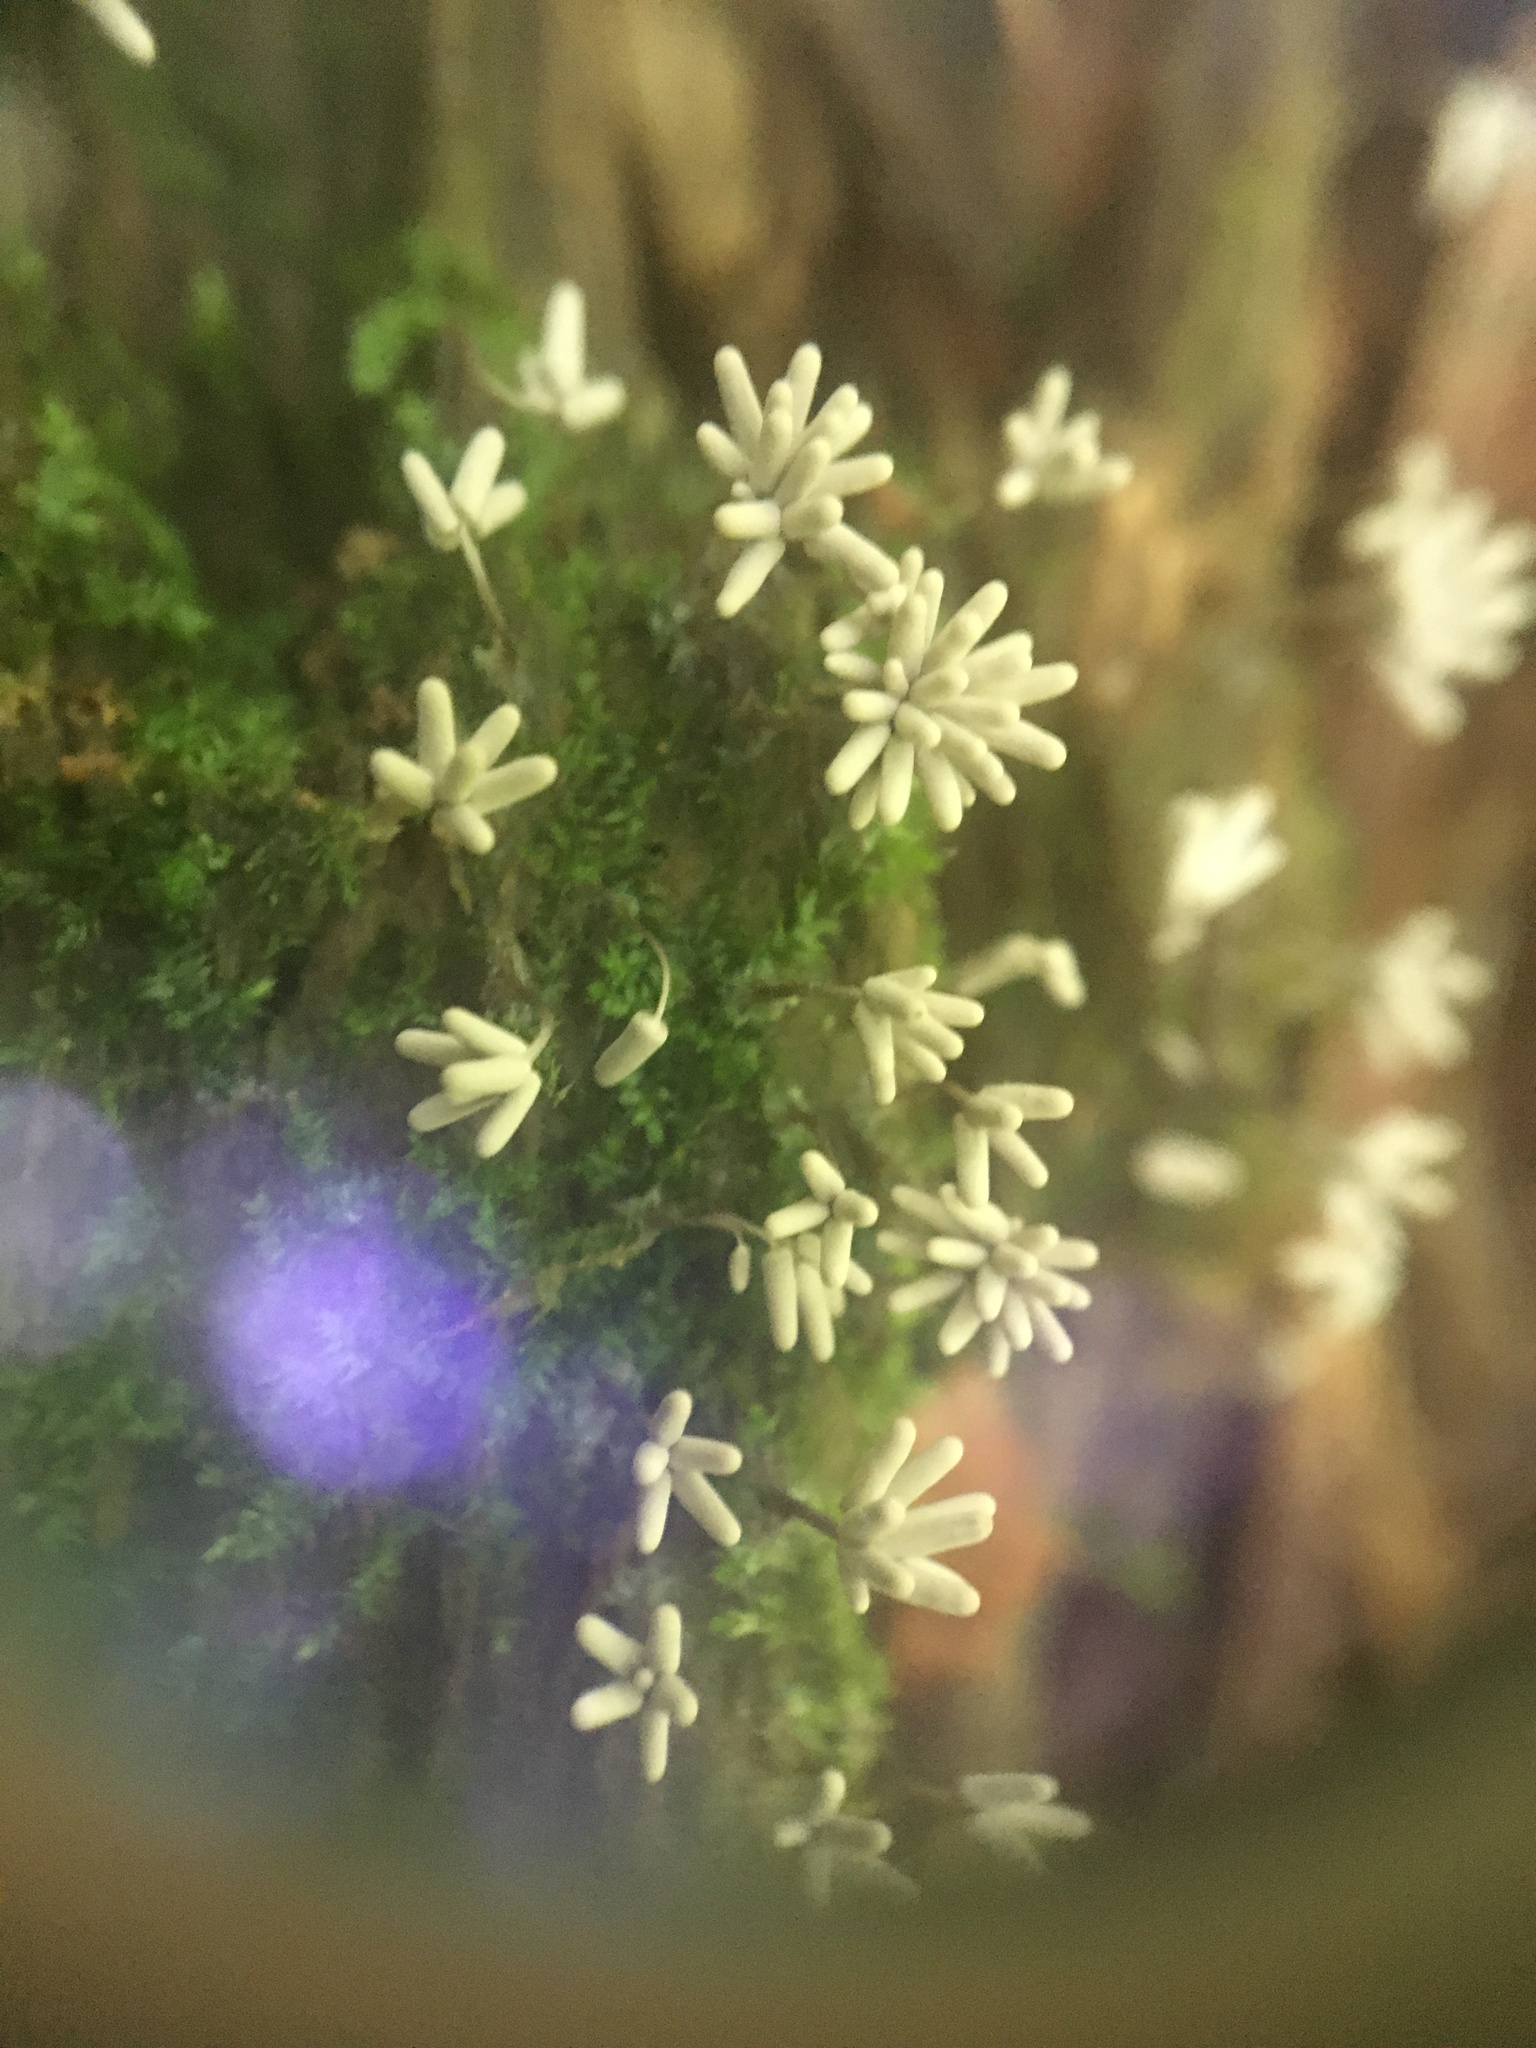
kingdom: Protozoa
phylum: Mycetozoa
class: Myxomycetes
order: Trichiales
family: Arcyriaceae
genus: Arcyria
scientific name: Arcyria cinerea
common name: White carnival candy slime mold
